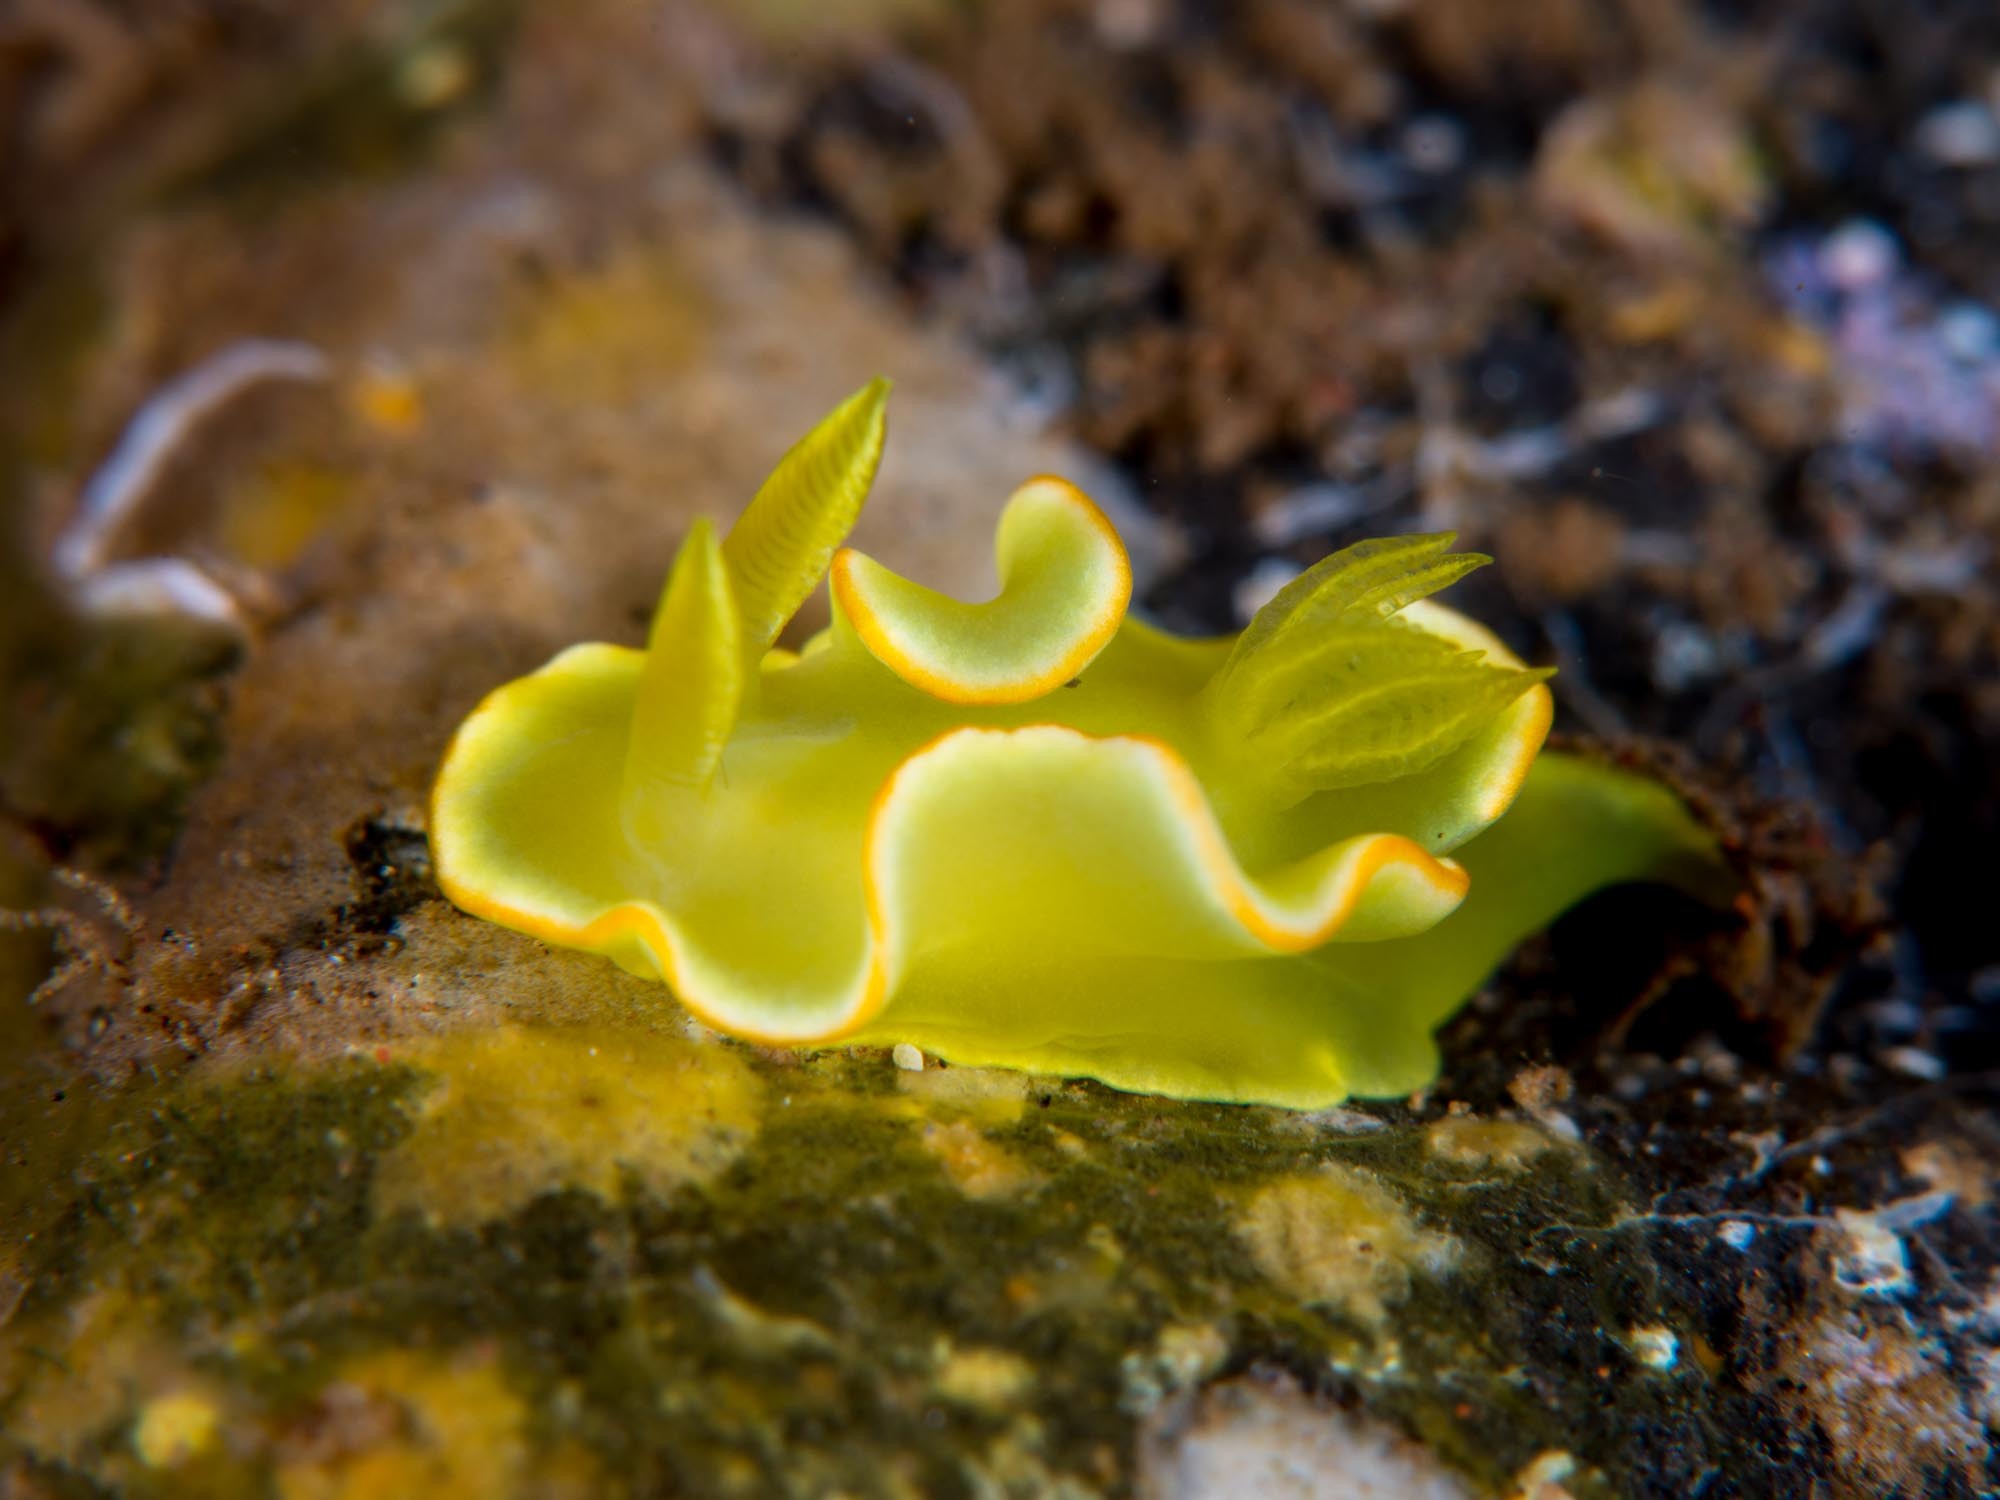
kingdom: Animalia
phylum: Mollusca
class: Gastropoda
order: Nudibranchia
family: Chromodorididae
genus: Diversidoris
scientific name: Diversidoris crocea
